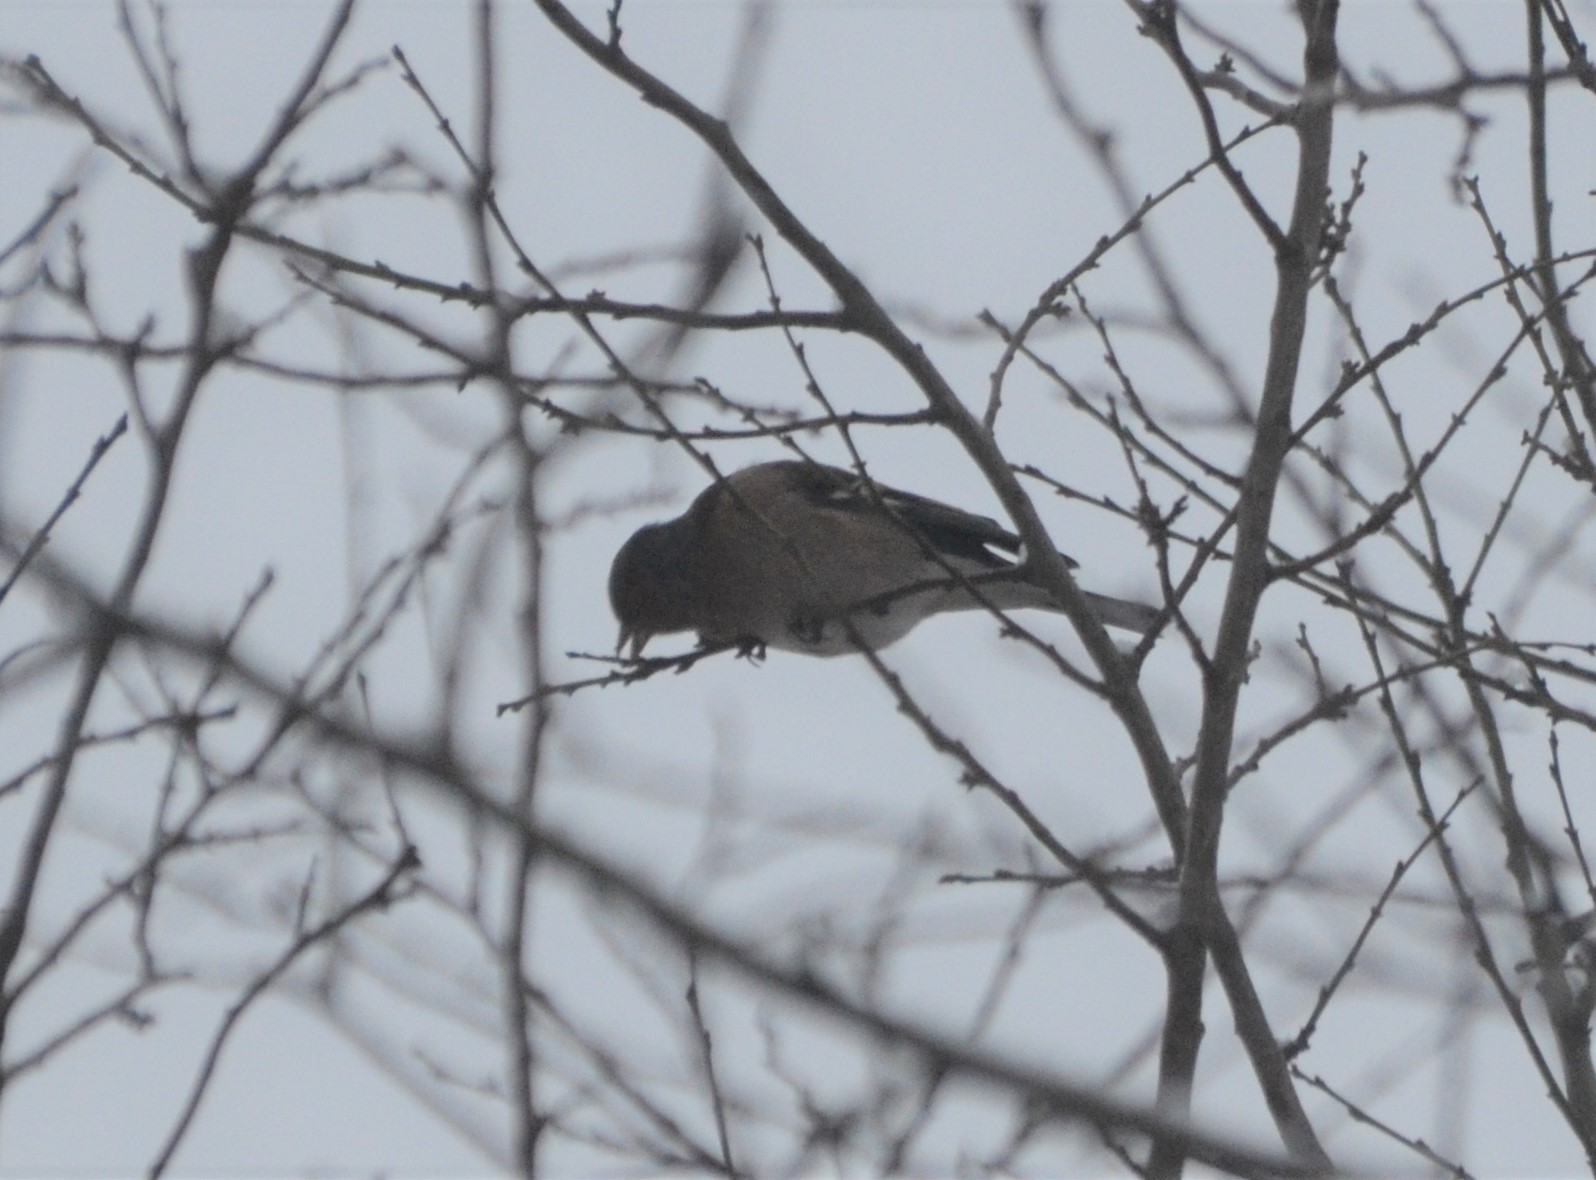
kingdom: Animalia
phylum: Chordata
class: Aves
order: Passeriformes
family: Fringillidae
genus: Fringilla
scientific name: Fringilla coelebs
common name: Common chaffinch
